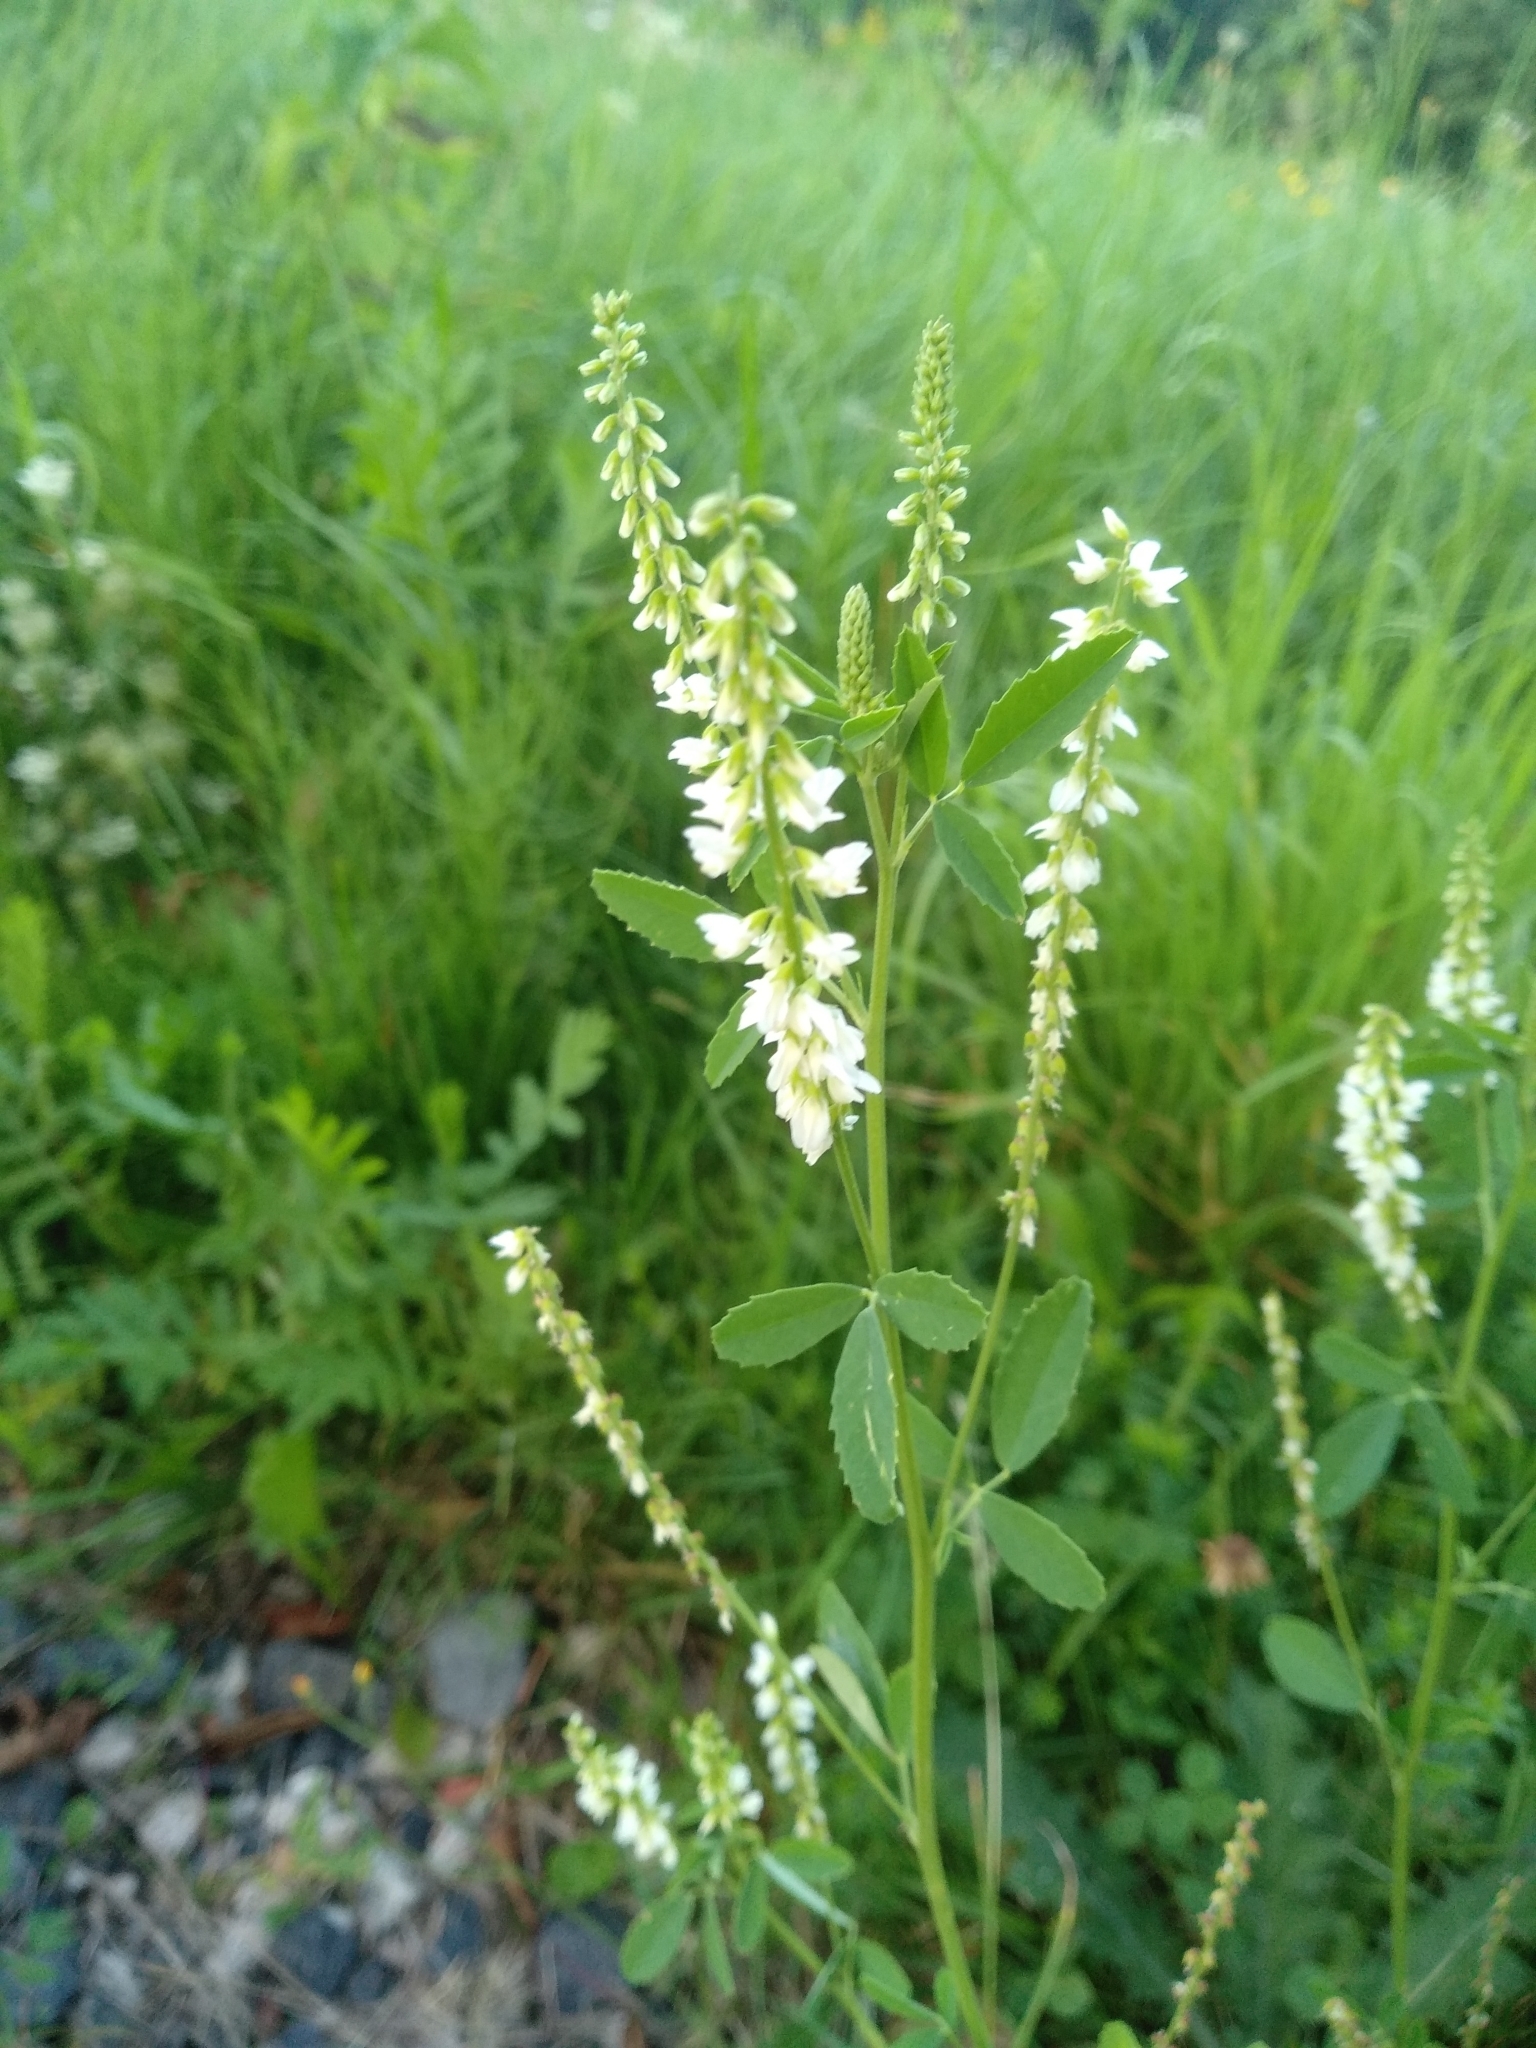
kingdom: Plantae
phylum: Tracheophyta
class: Magnoliopsida
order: Fabales
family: Fabaceae
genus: Melilotus
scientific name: Melilotus albus
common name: White melilot
